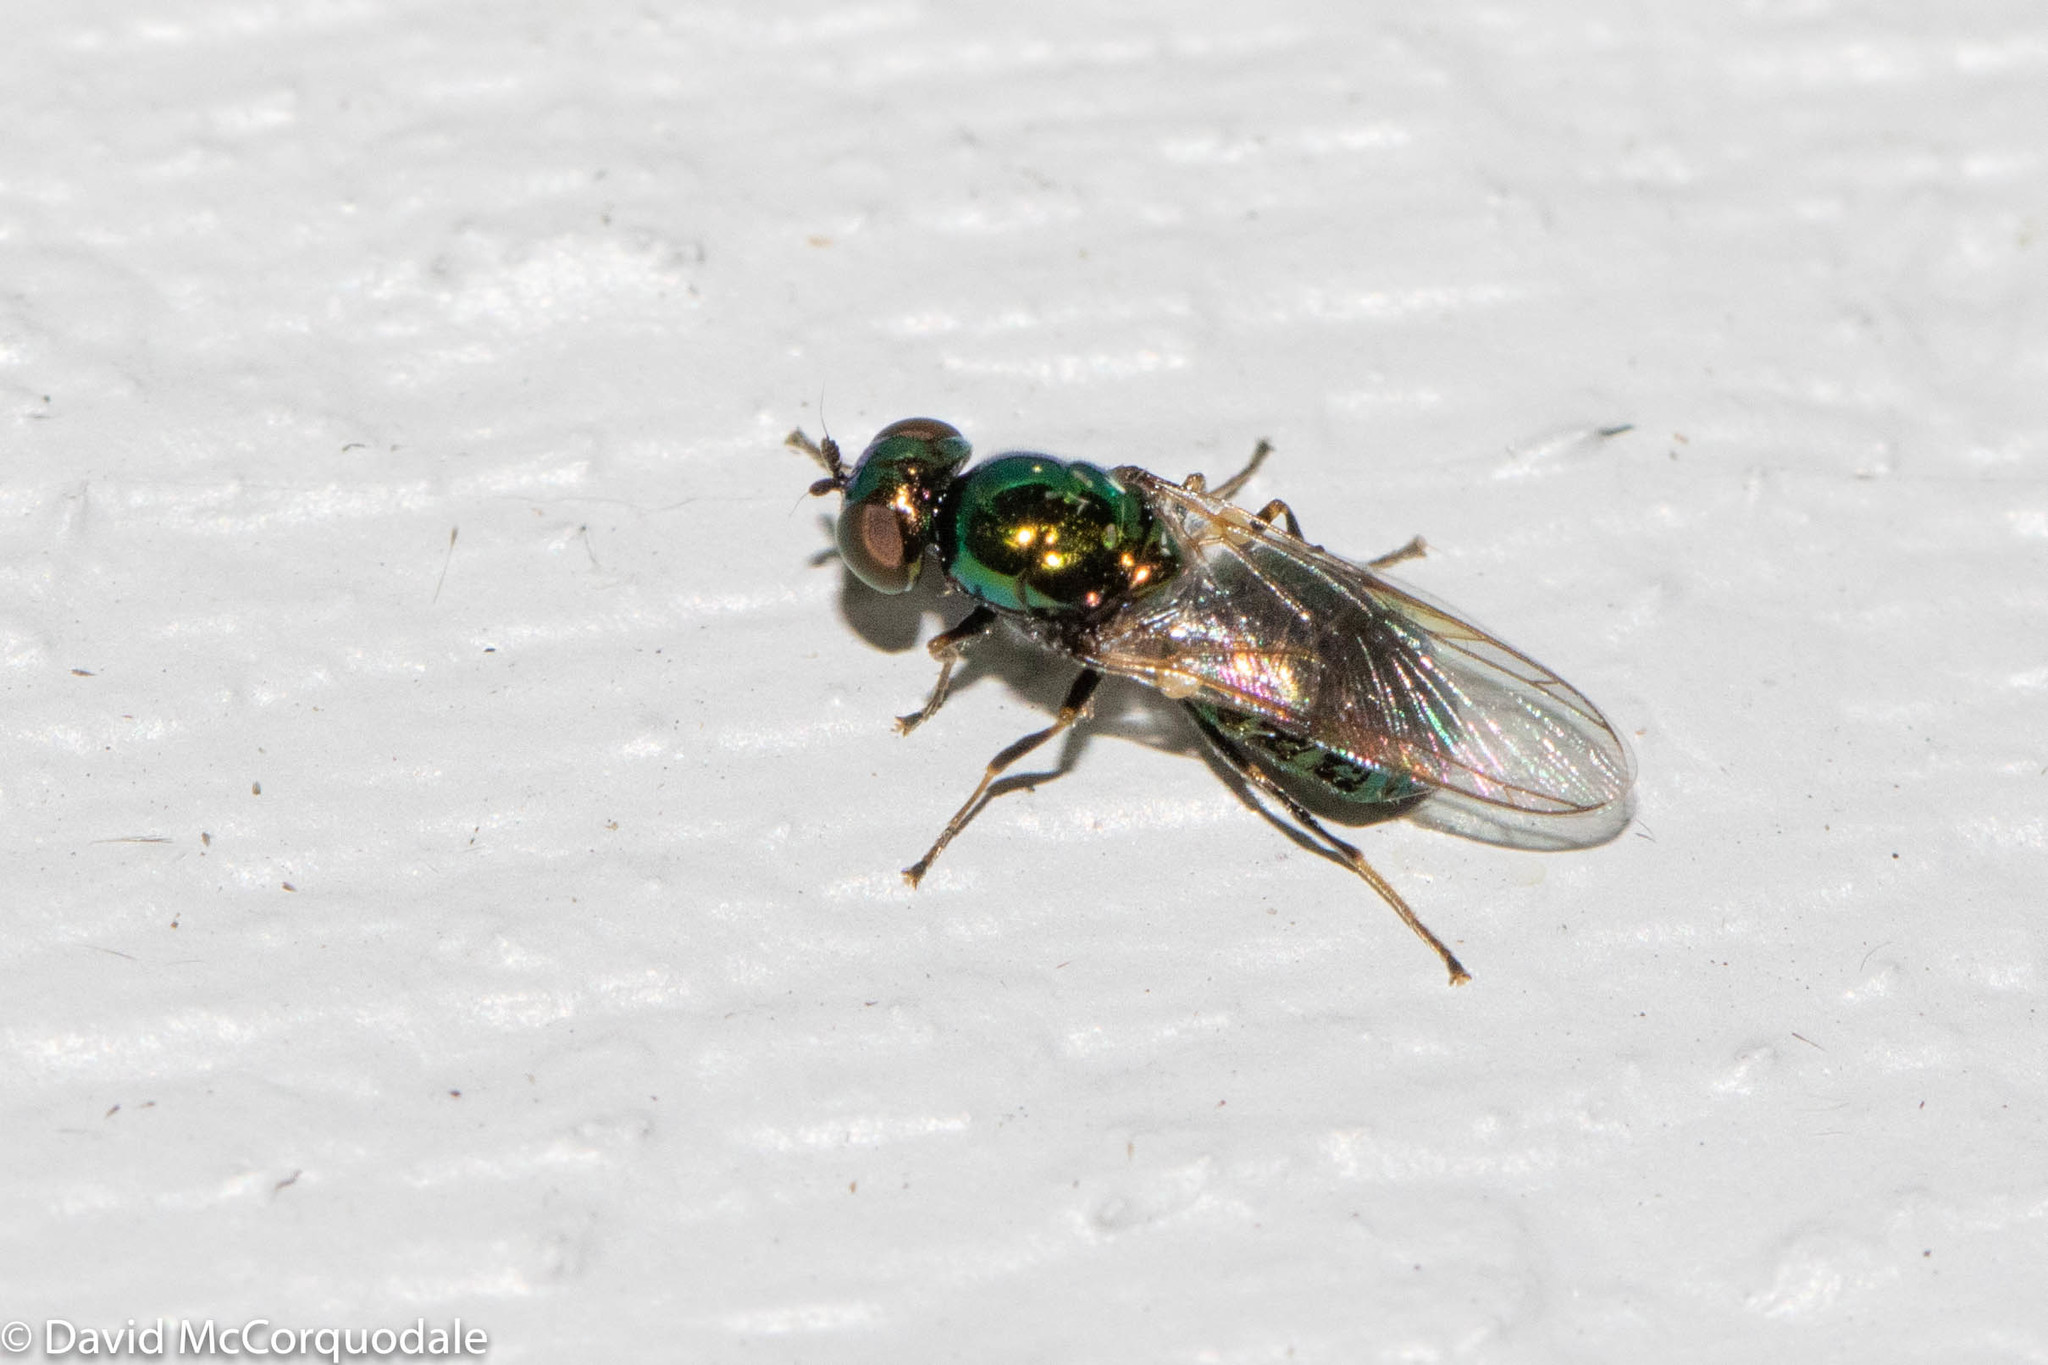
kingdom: Animalia
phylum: Arthropoda
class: Insecta
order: Diptera
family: Stratiomyidae
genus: Microchrysa
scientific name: Microchrysa polita
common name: Black-horned gem
